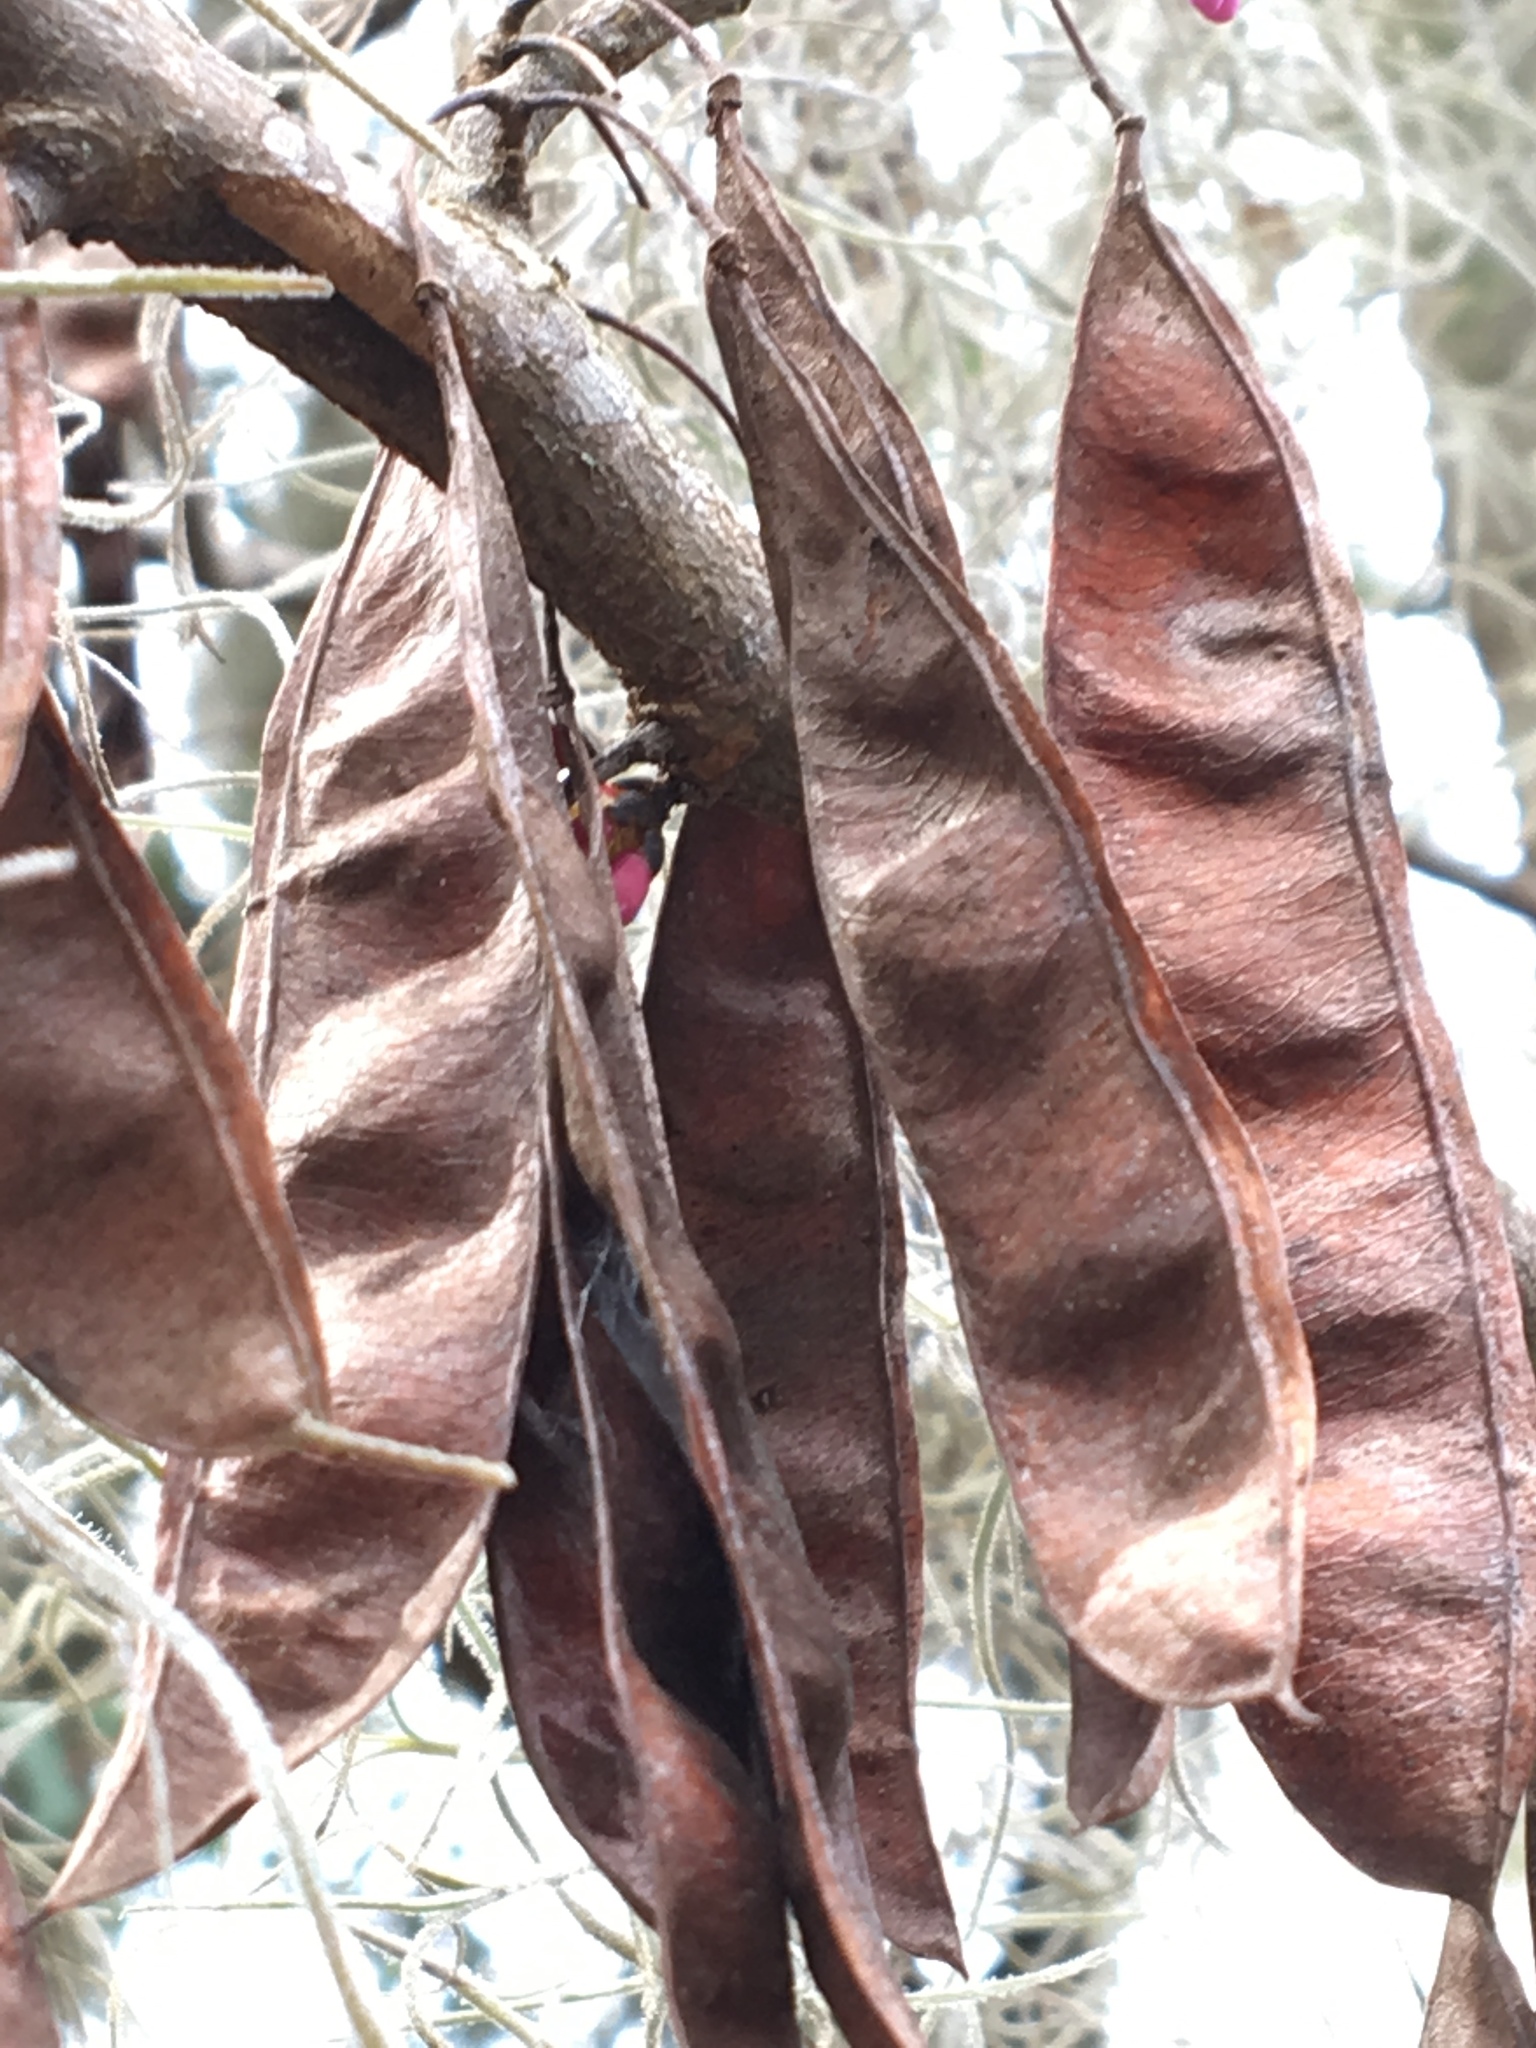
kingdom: Plantae
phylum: Tracheophyta
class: Magnoliopsida
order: Fabales
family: Fabaceae
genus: Cercis
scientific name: Cercis canadensis
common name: Eastern redbud
